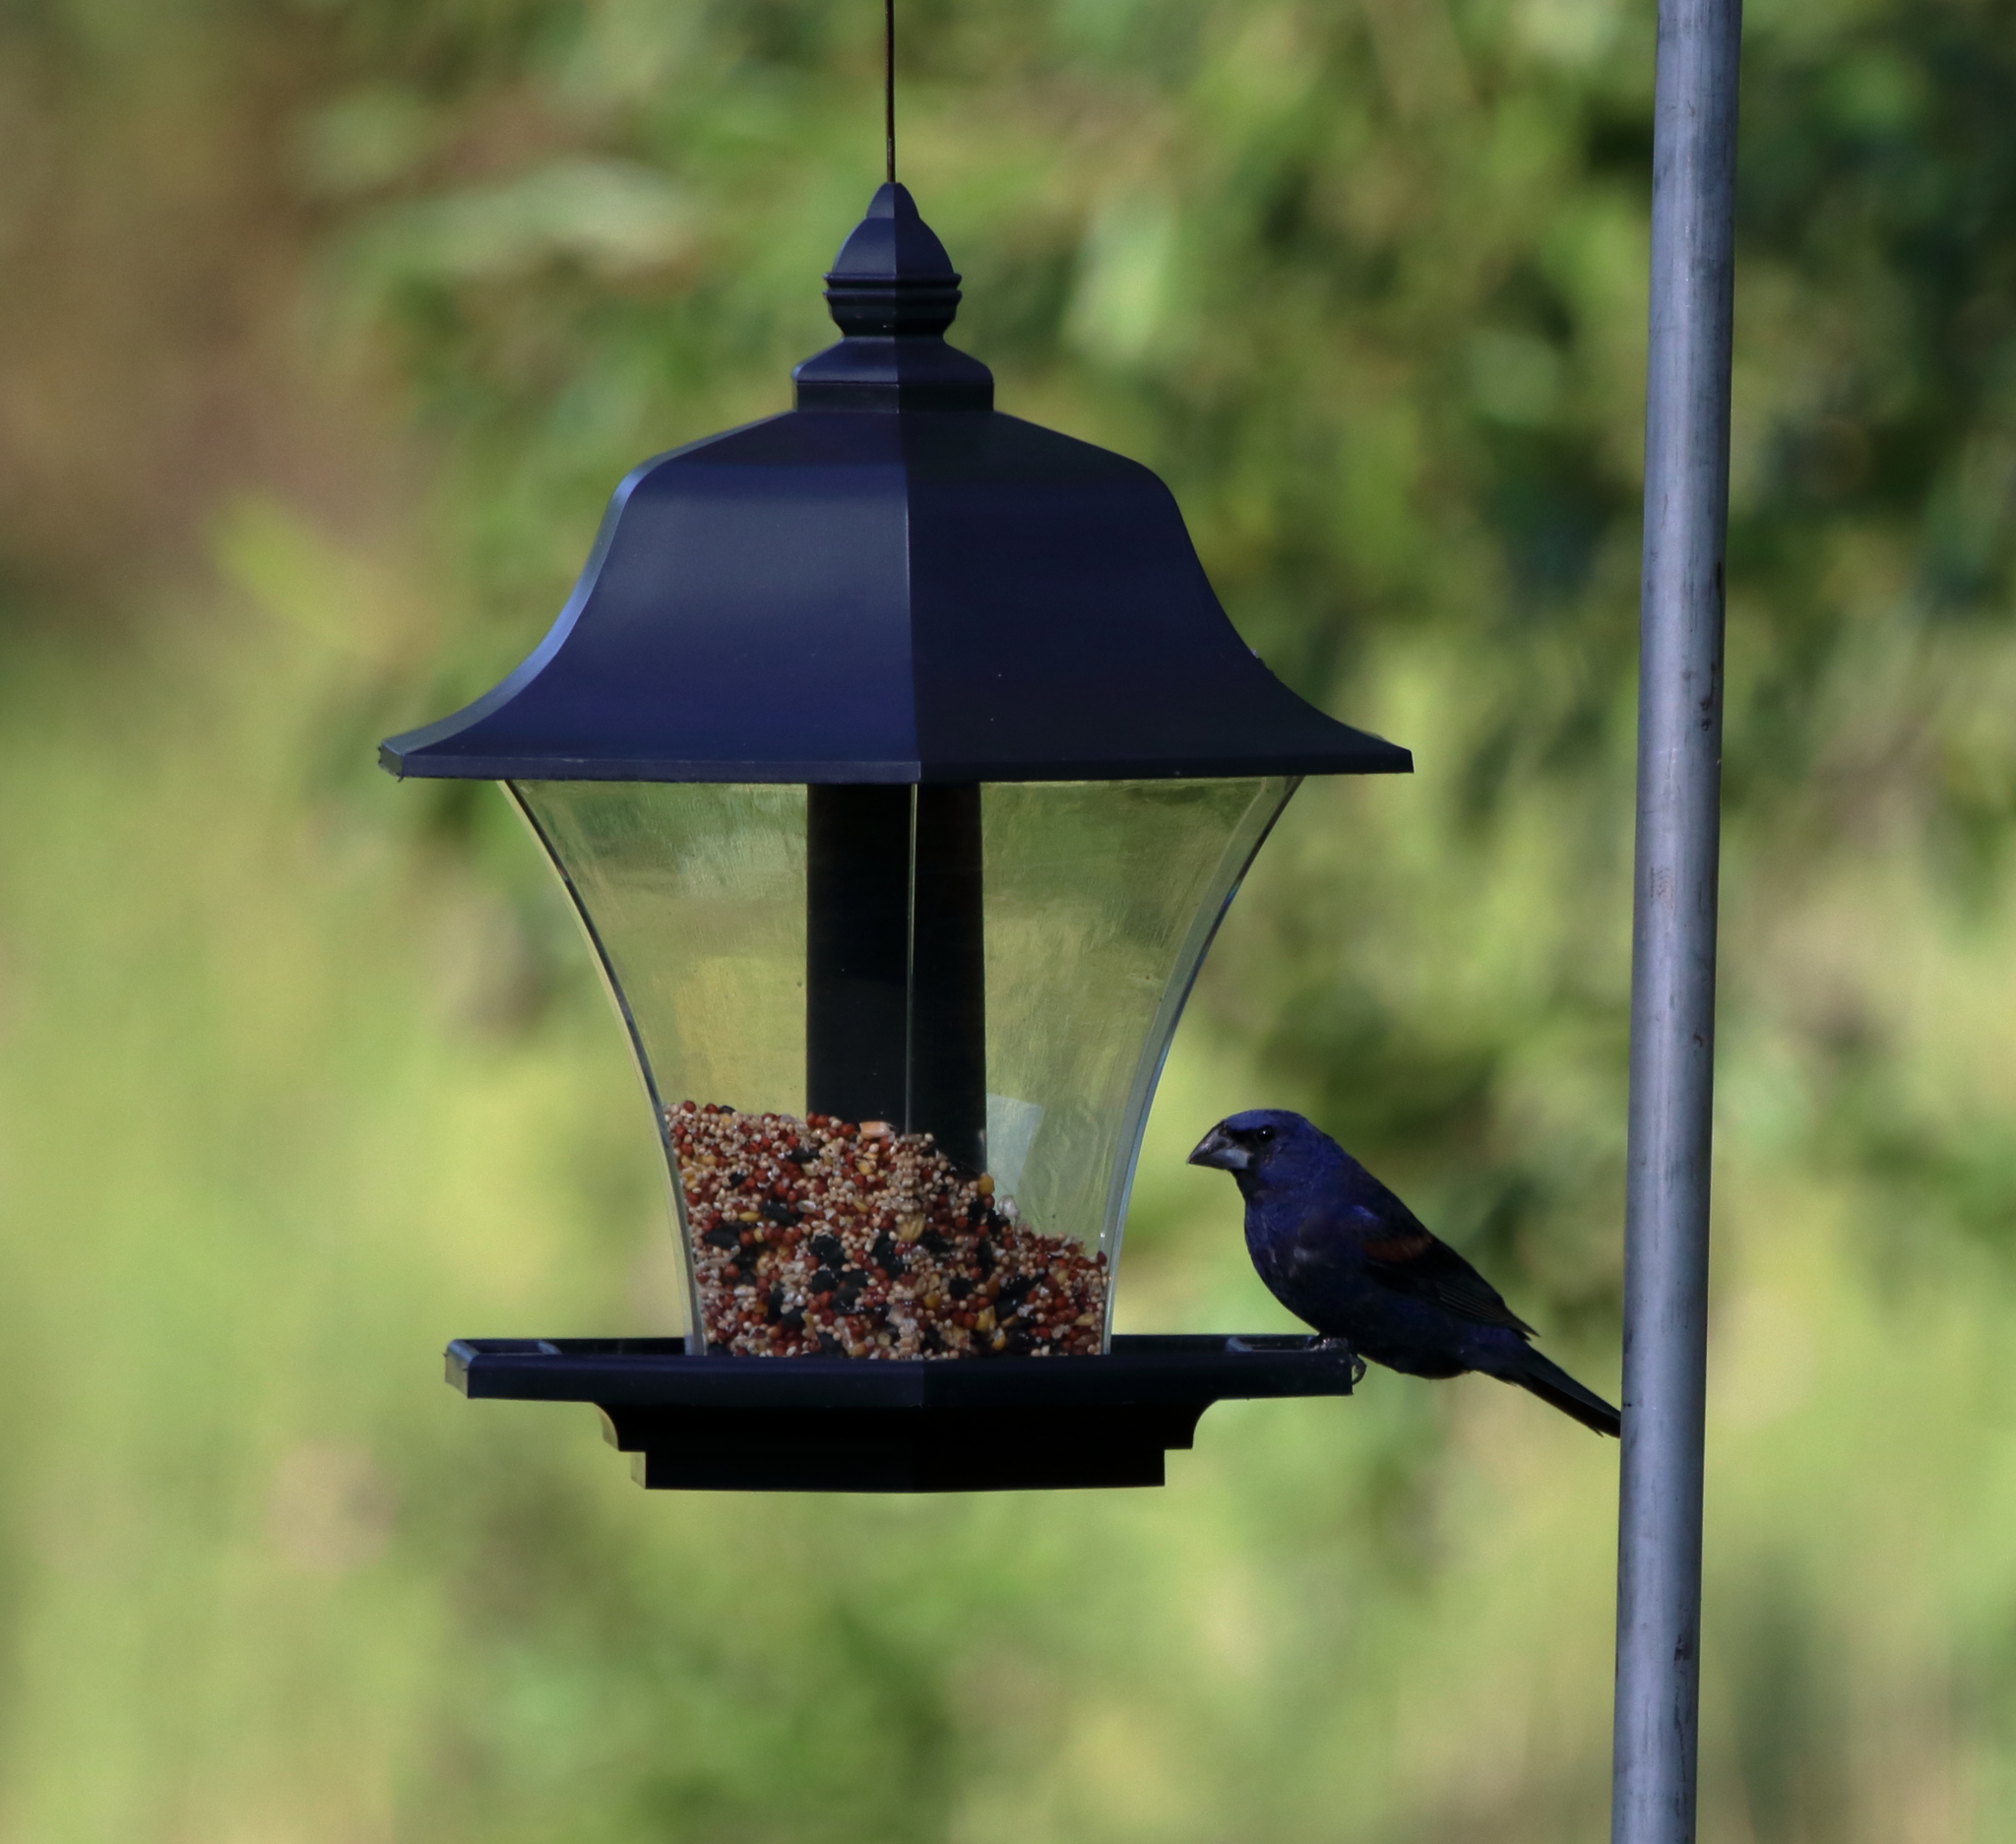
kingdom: Animalia
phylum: Chordata
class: Aves
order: Passeriformes
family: Cardinalidae
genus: Passerina
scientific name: Passerina caerulea
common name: Blue grosbeak
